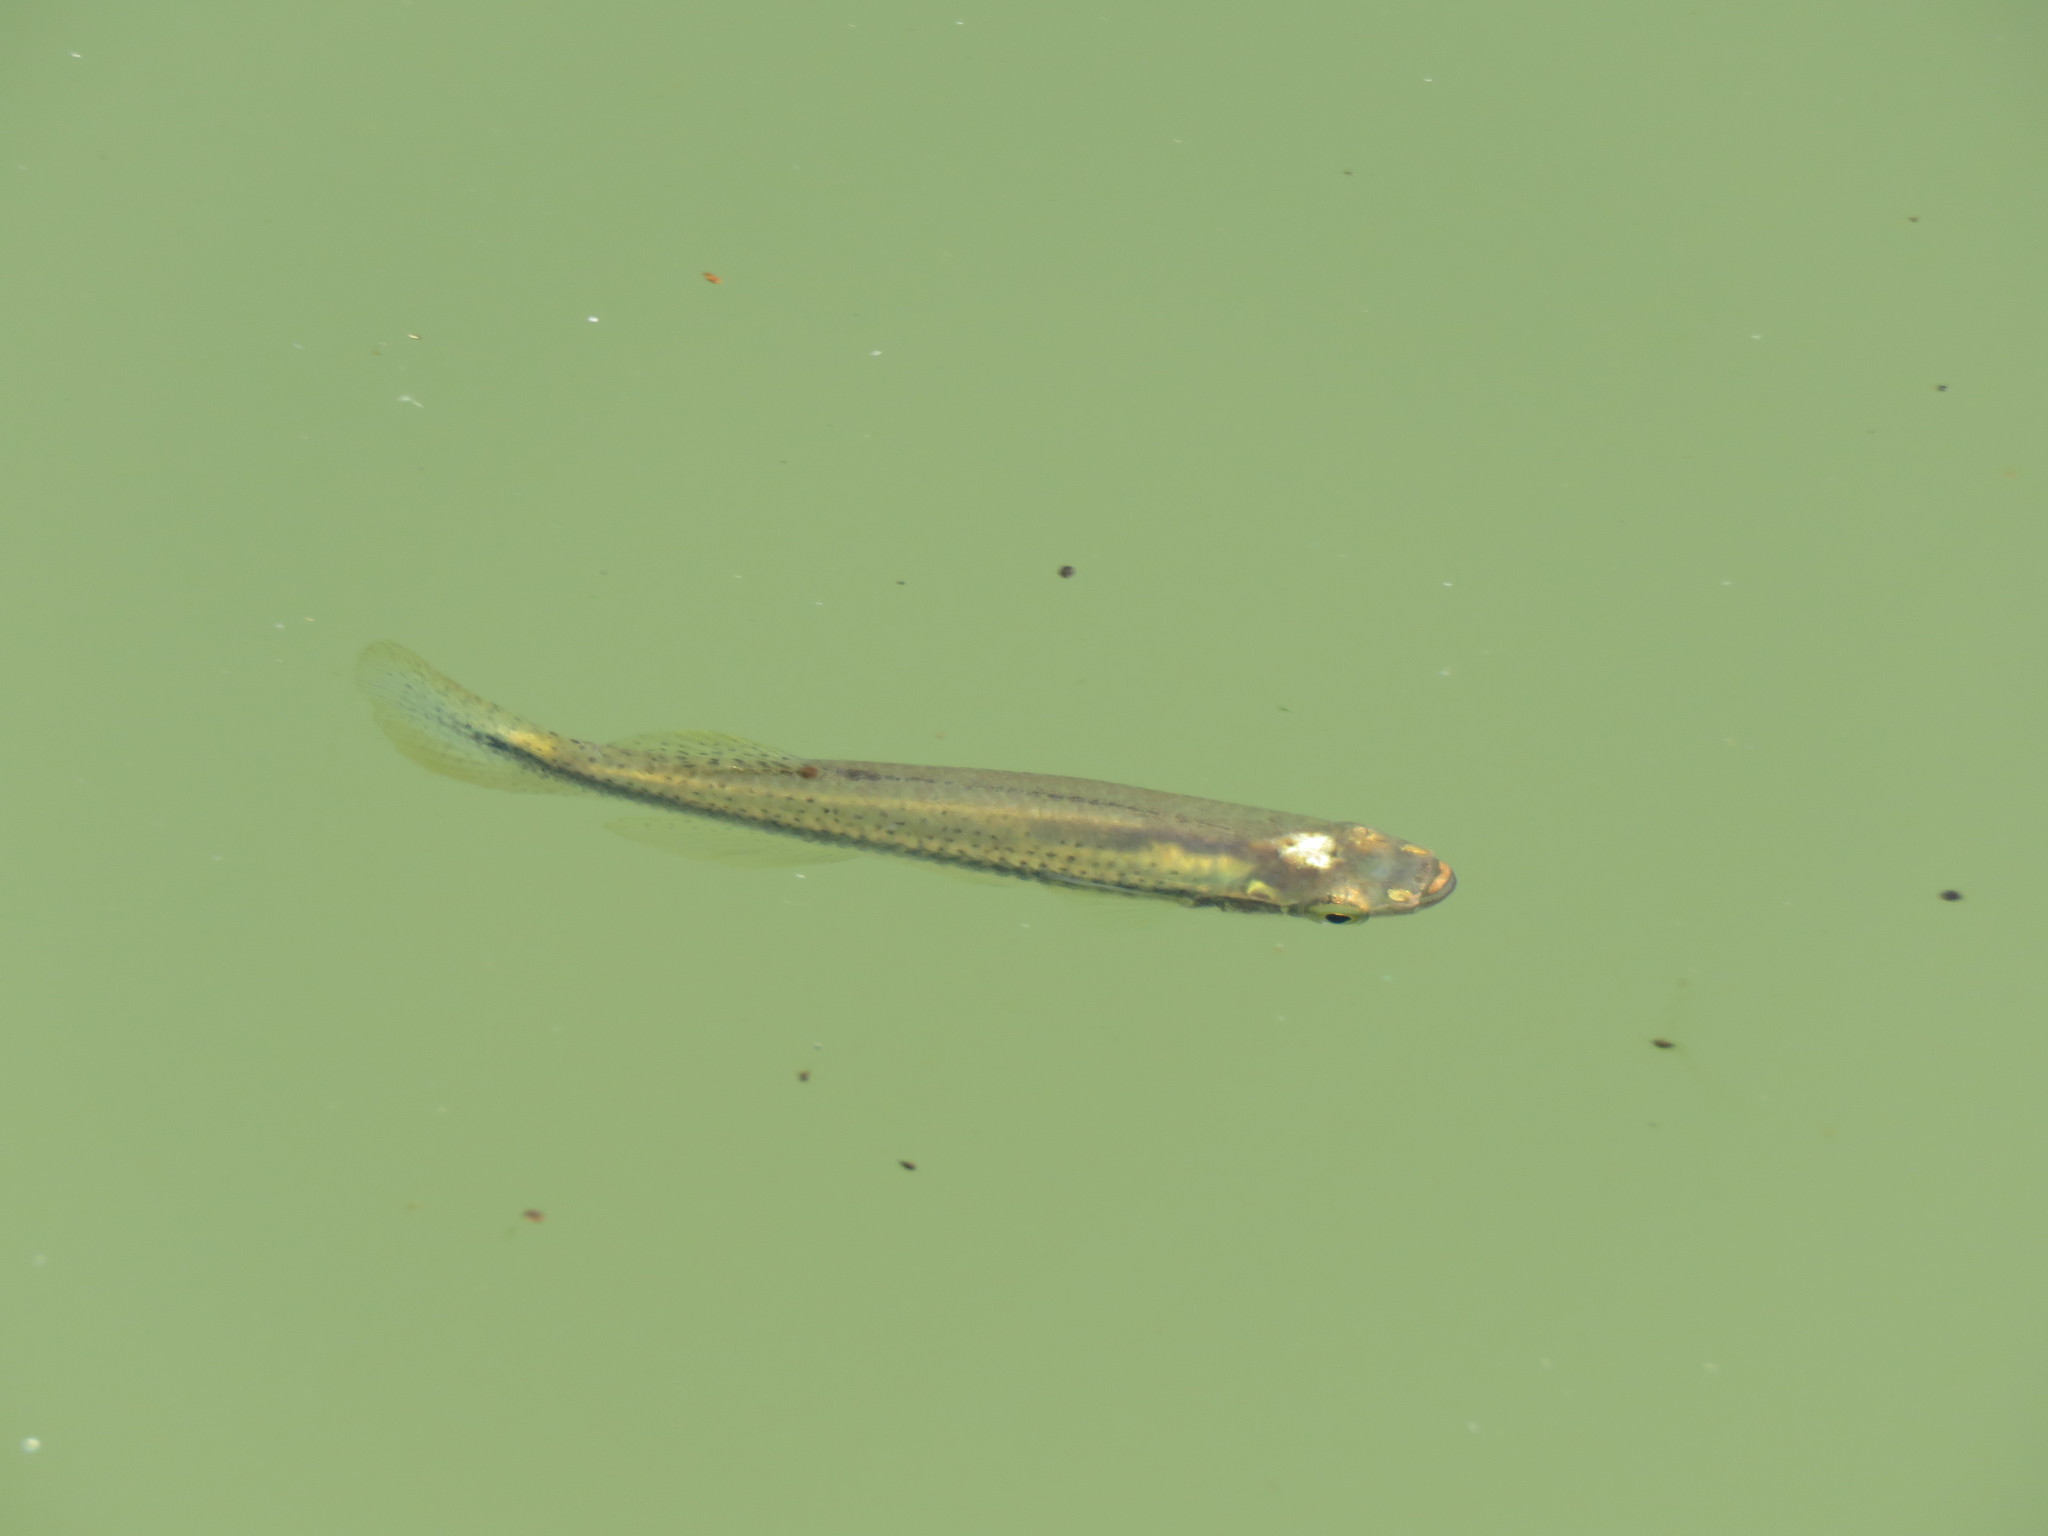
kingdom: Animalia
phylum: Chordata
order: Cyprinodontiformes
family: Fundulidae
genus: Fundulus
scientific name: Fundulus notatus
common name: Blackstripe topminnow
